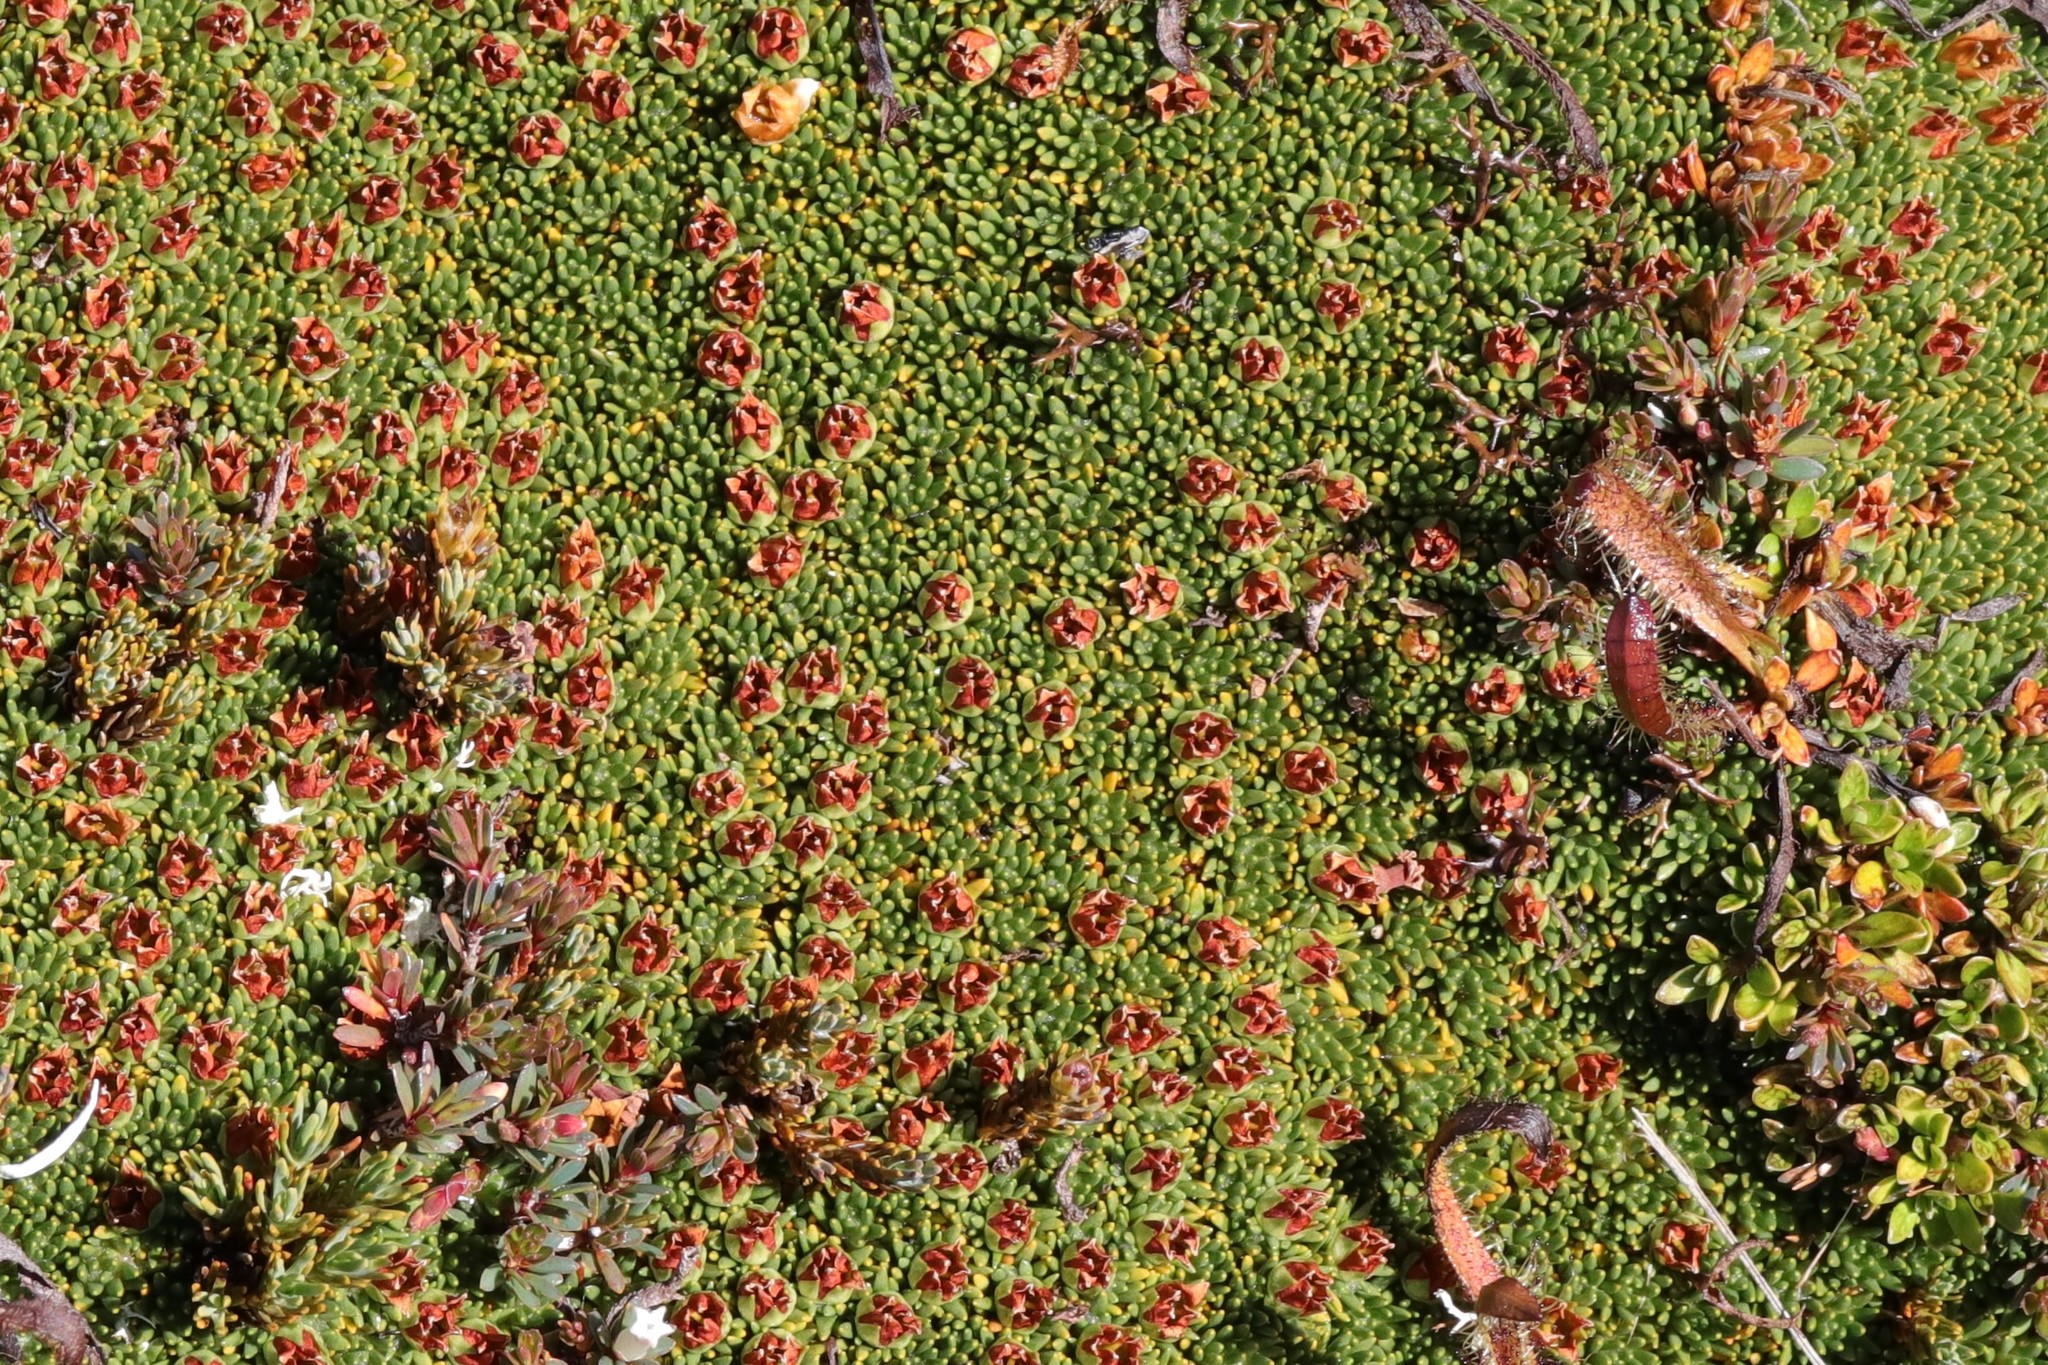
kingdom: Plantae
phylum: Tracheophyta
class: Magnoliopsida
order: Asterales
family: Stylidiaceae
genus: Donatia
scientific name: Donatia novae-zelandiae
